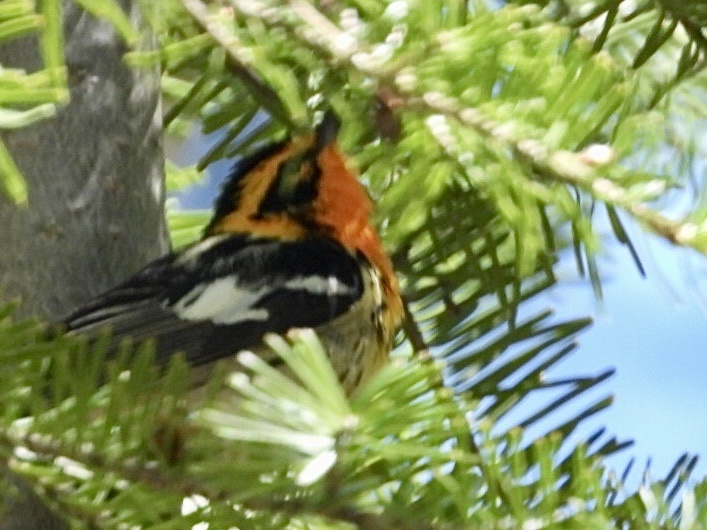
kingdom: Animalia
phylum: Chordata
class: Aves
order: Passeriformes
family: Parulidae
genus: Setophaga
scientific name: Setophaga fusca
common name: Blackburnian warbler
